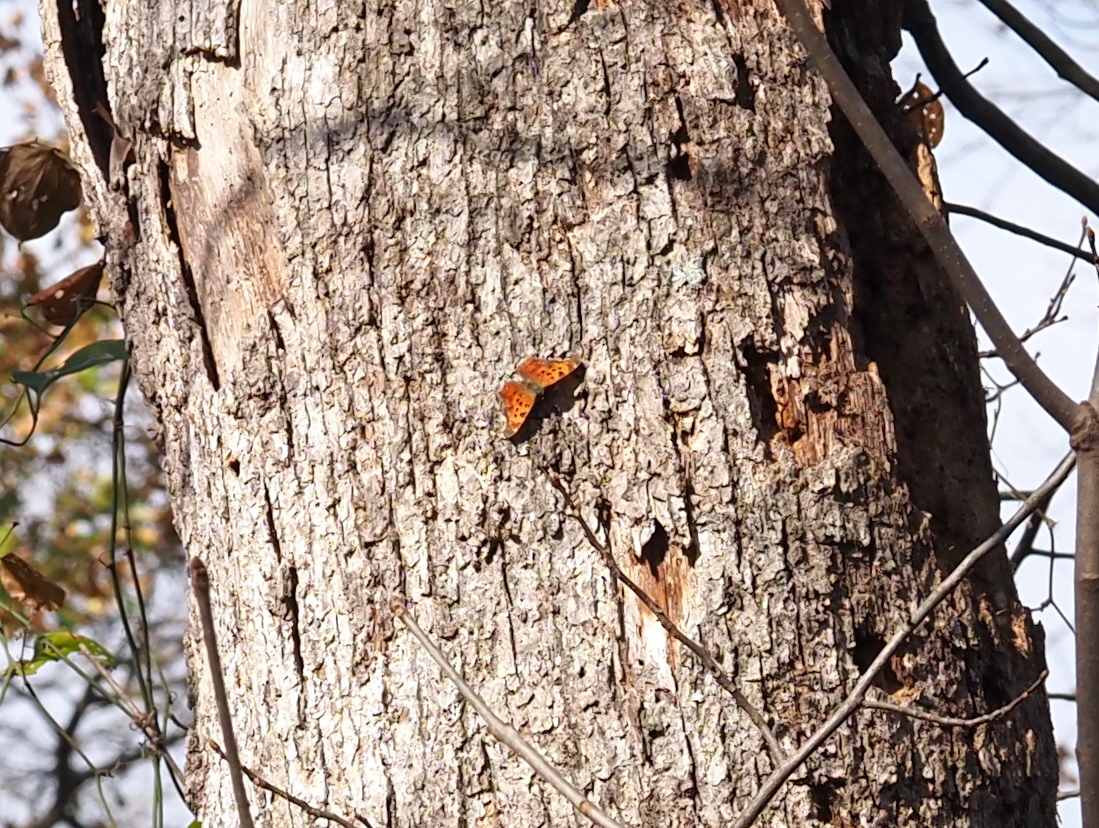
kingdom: Animalia
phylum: Arthropoda
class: Insecta
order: Lepidoptera
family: Nymphalidae
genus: Polygonia
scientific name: Polygonia comma
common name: Eastern comma
